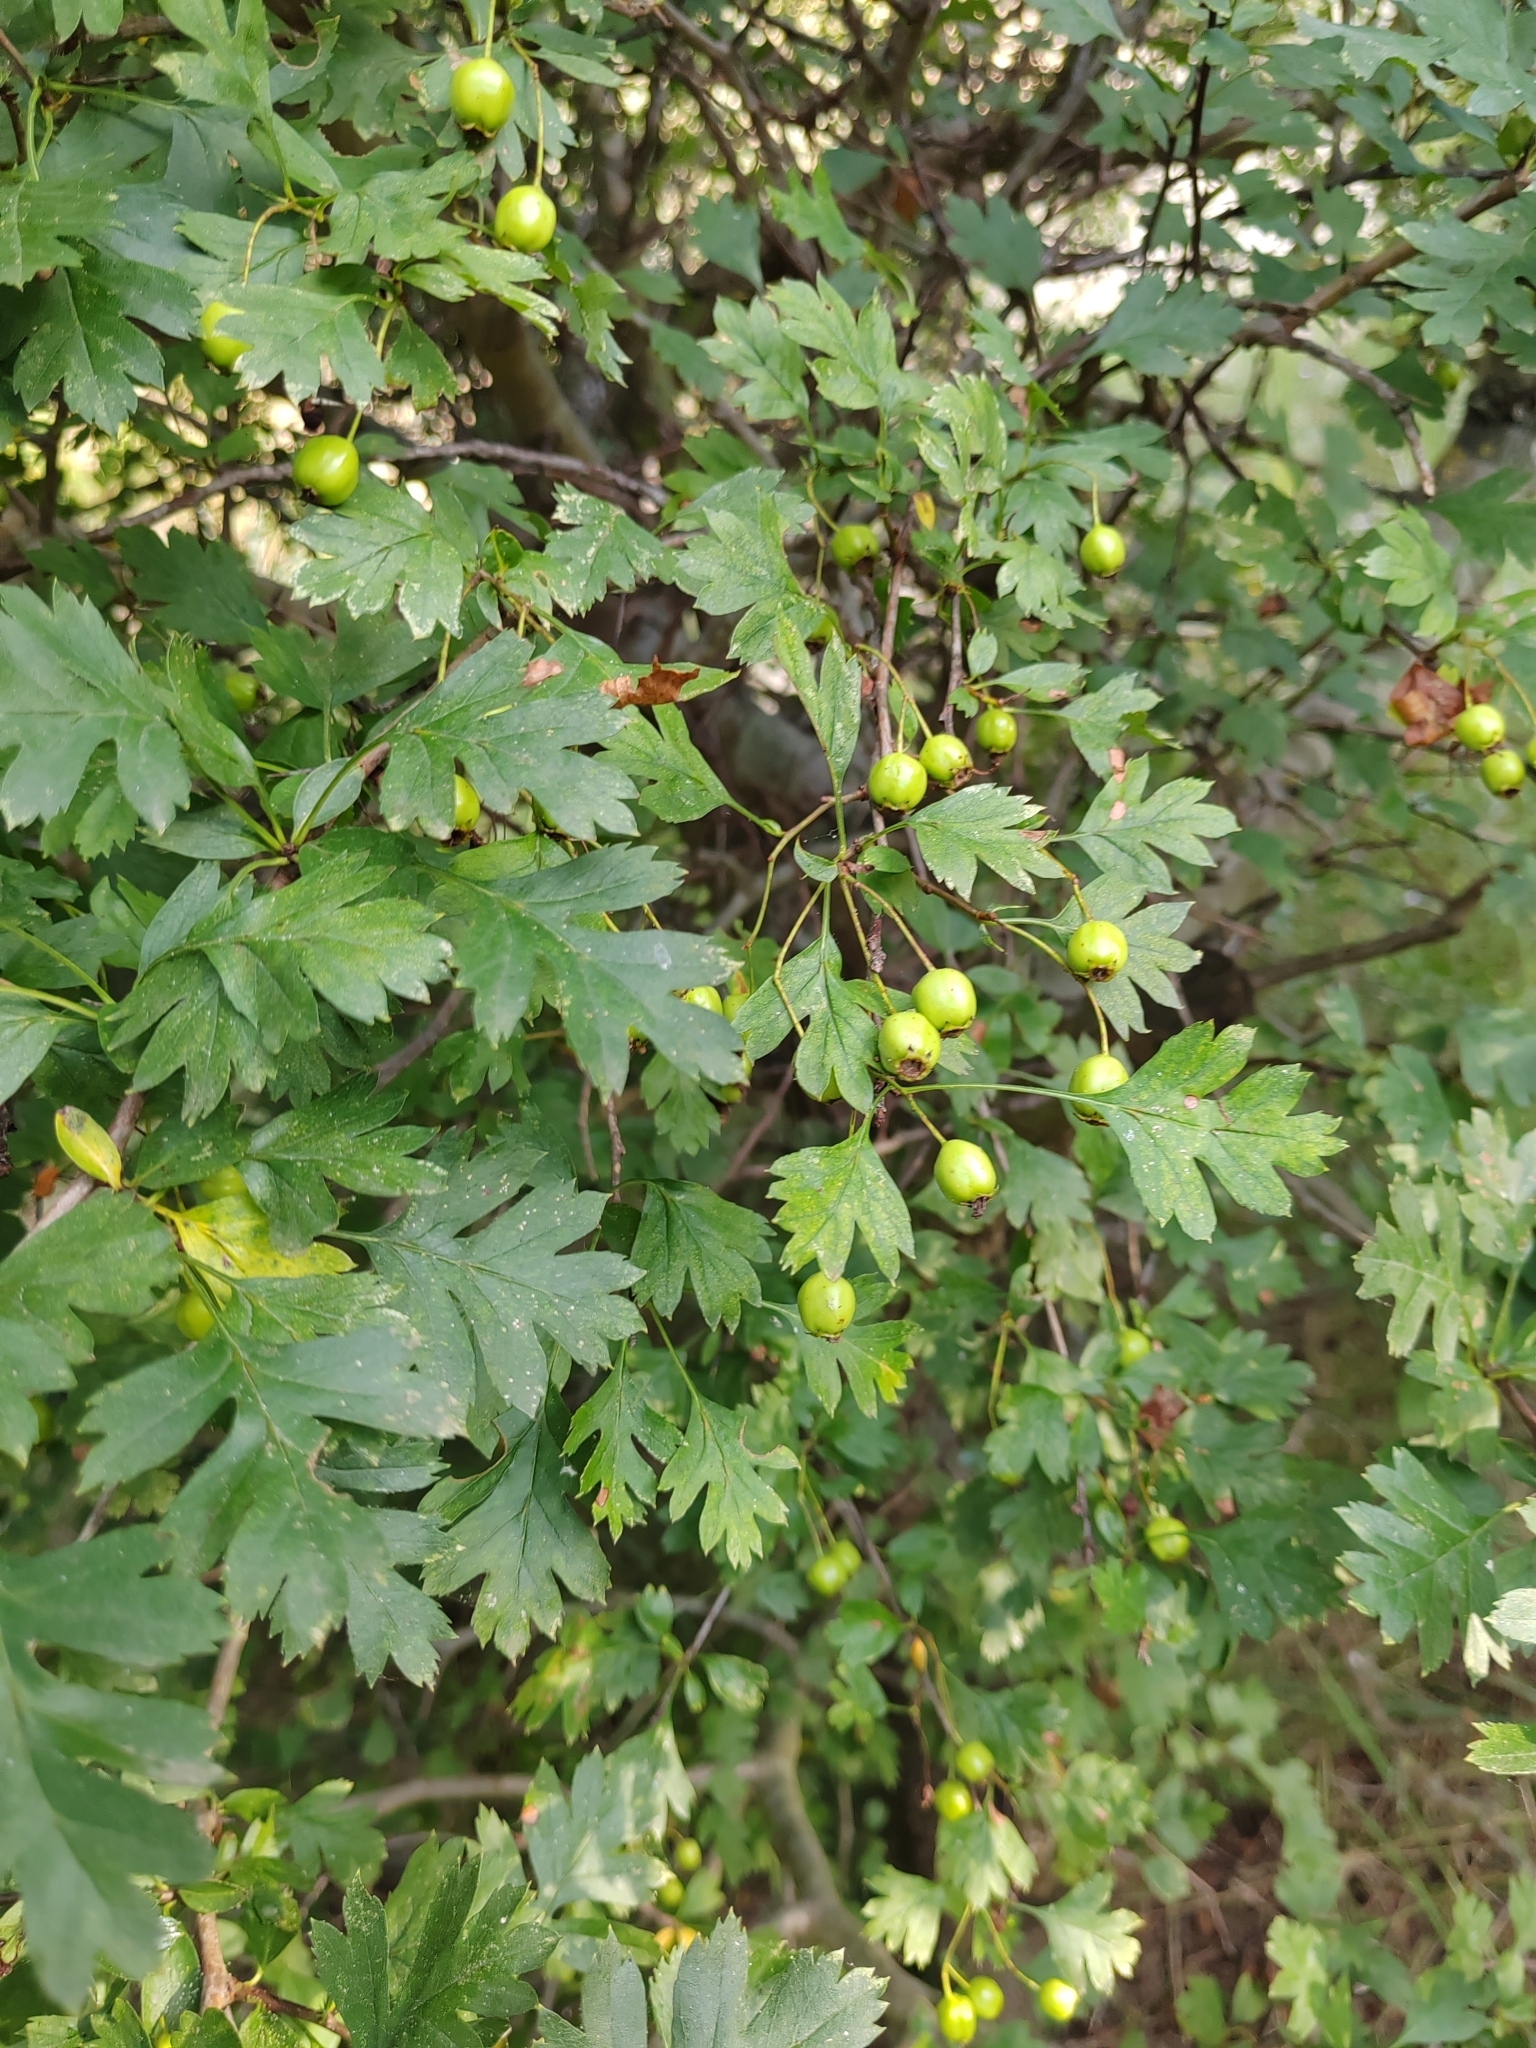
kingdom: Plantae
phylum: Tracheophyta
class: Magnoliopsida
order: Rosales
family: Rosaceae
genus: Crataegus
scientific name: Crataegus monogyna
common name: Hawthorn
